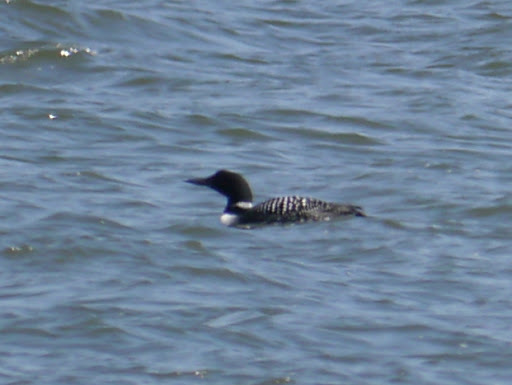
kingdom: Animalia
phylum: Chordata
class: Aves
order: Gaviiformes
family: Gaviidae
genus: Gavia
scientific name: Gavia immer
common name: Common loon
